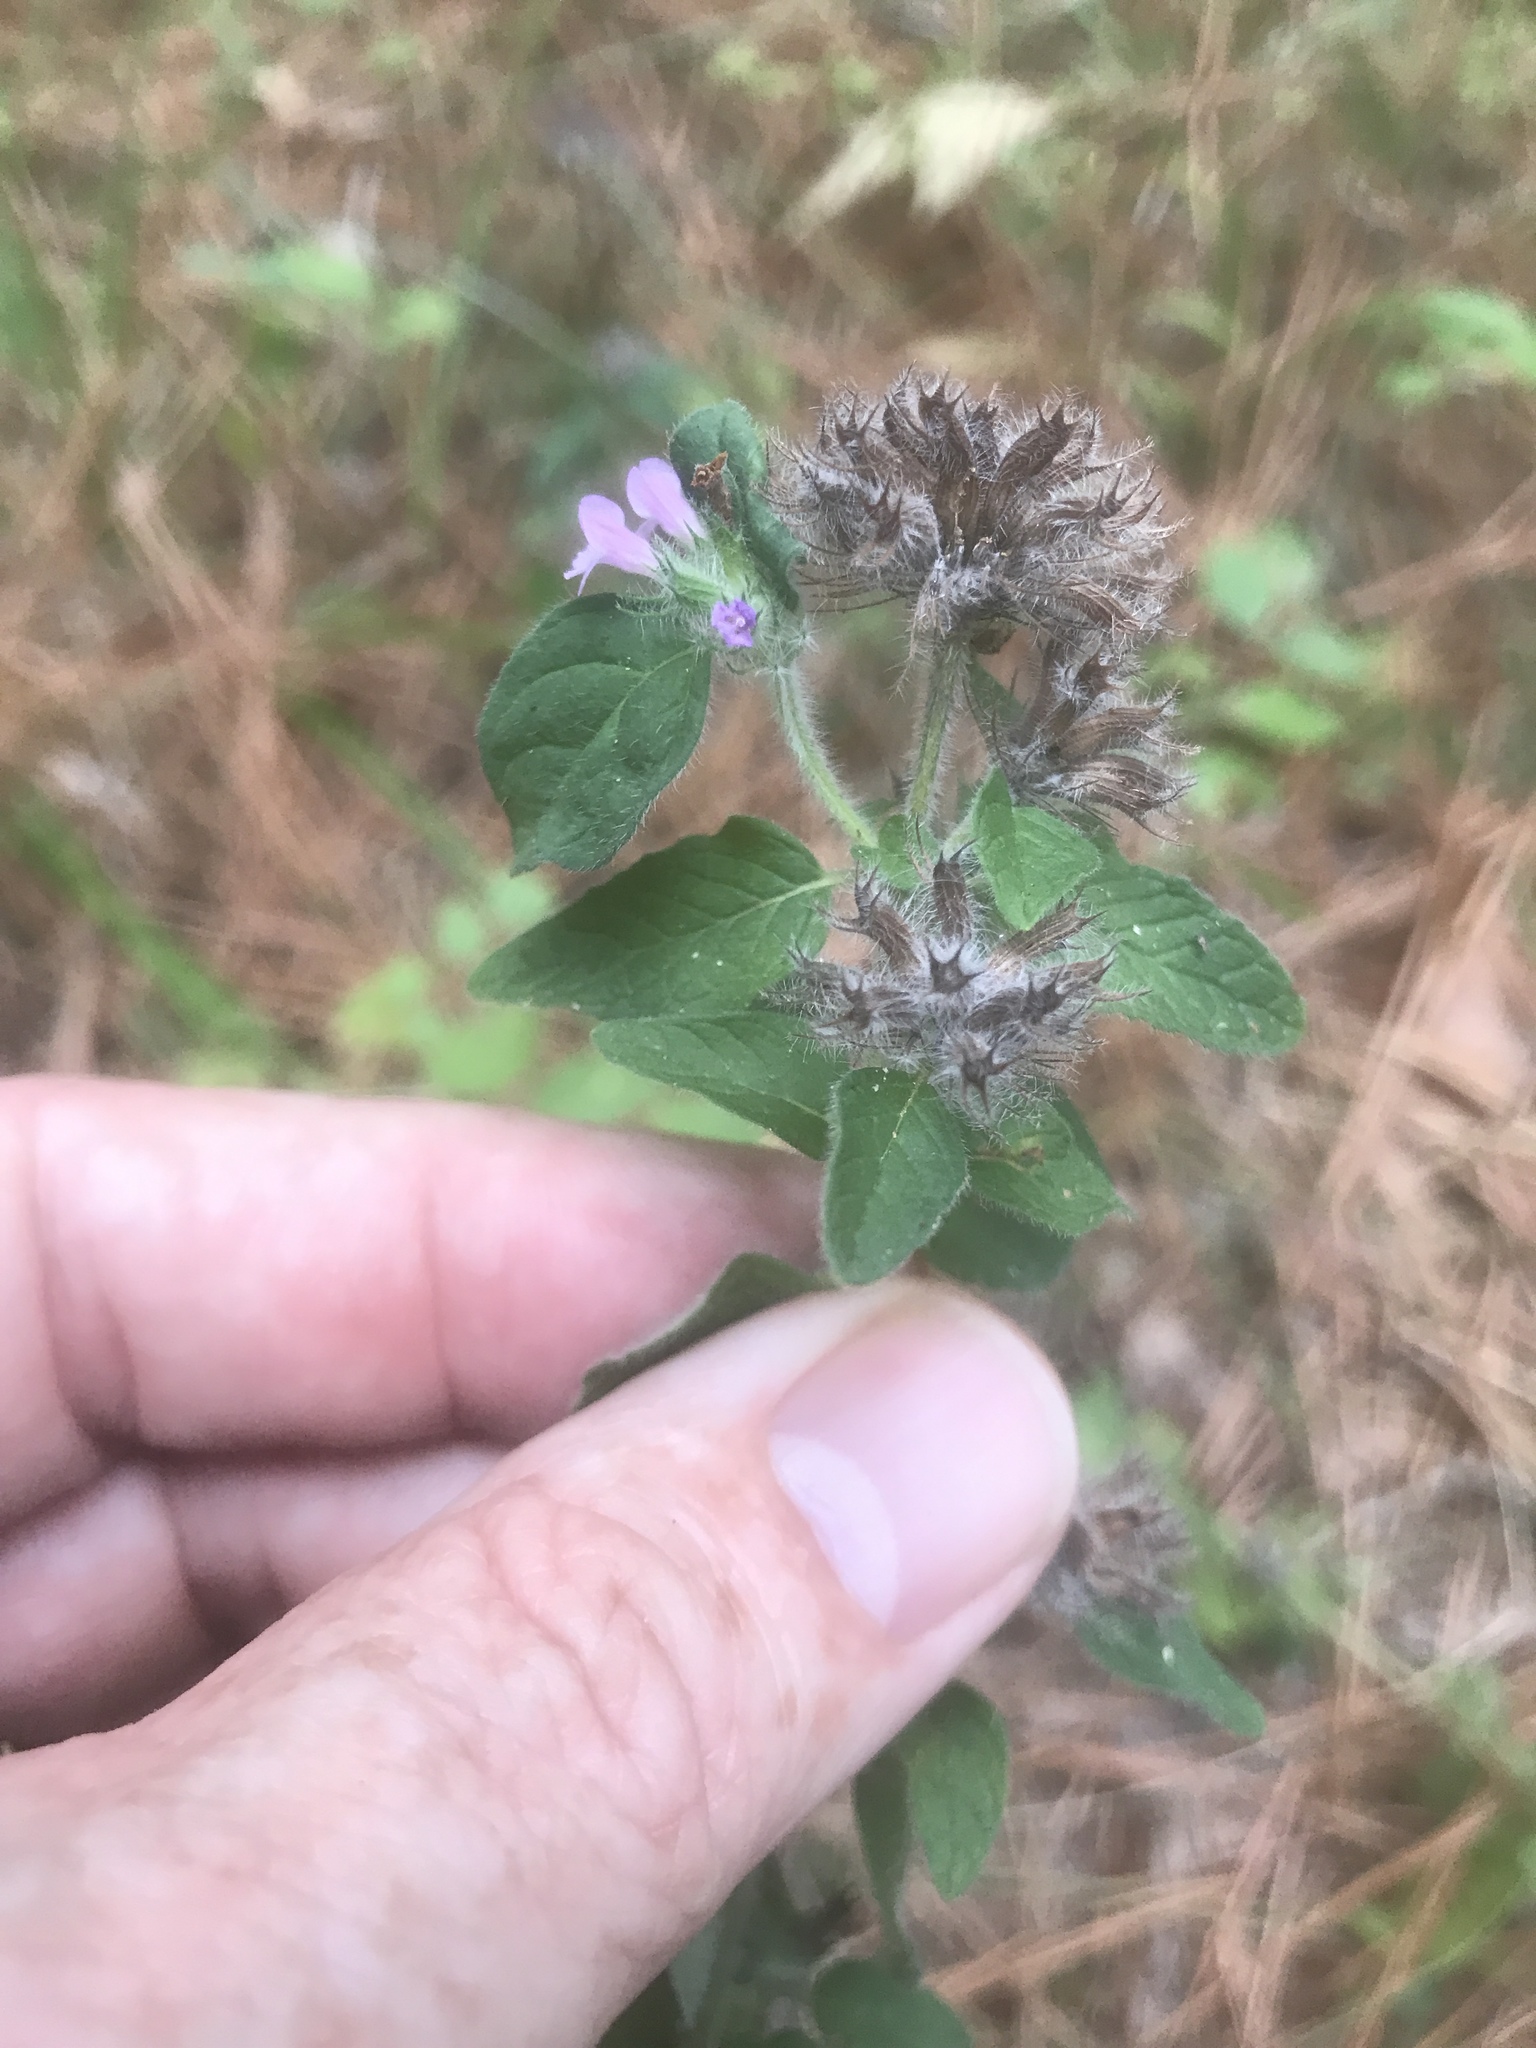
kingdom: Plantae
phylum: Tracheophyta
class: Magnoliopsida
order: Lamiales
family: Lamiaceae
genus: Clinopodium
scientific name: Clinopodium vulgare
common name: Wild basil
